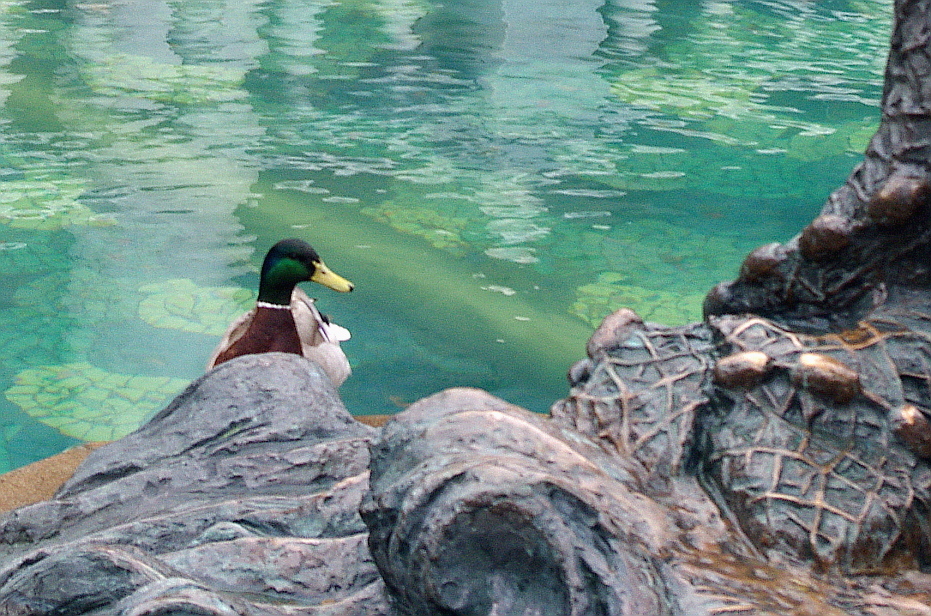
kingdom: Animalia
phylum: Chordata
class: Aves
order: Anseriformes
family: Anatidae
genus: Anas
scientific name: Anas platyrhynchos
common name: Mallard
